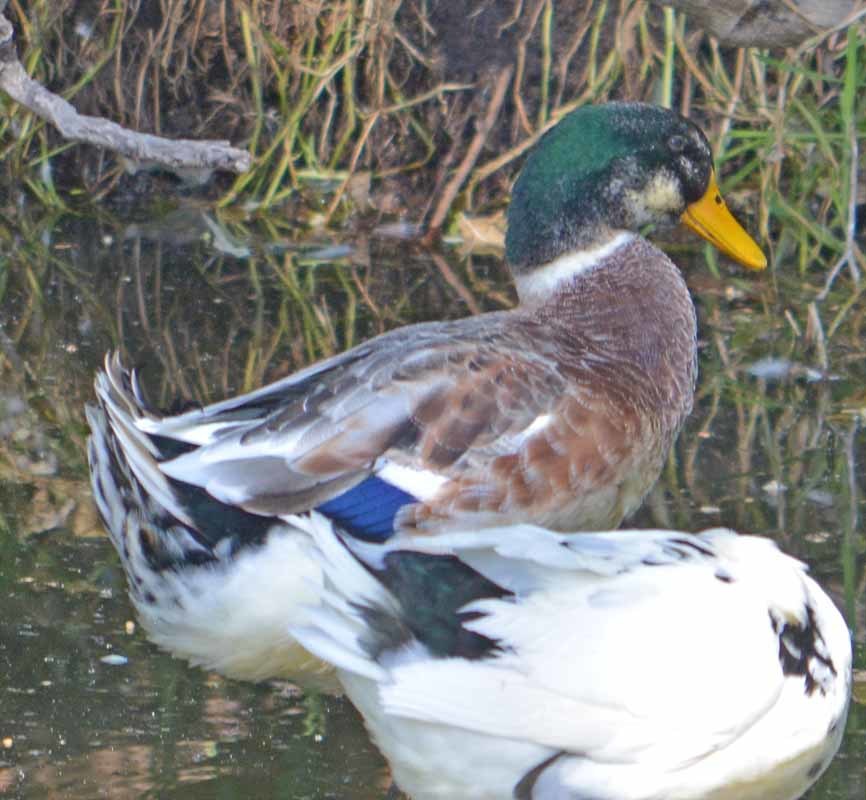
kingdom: Animalia
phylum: Chordata
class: Aves
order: Anseriformes
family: Anatidae
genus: Anas
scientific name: Anas platyrhynchos
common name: Mallard
